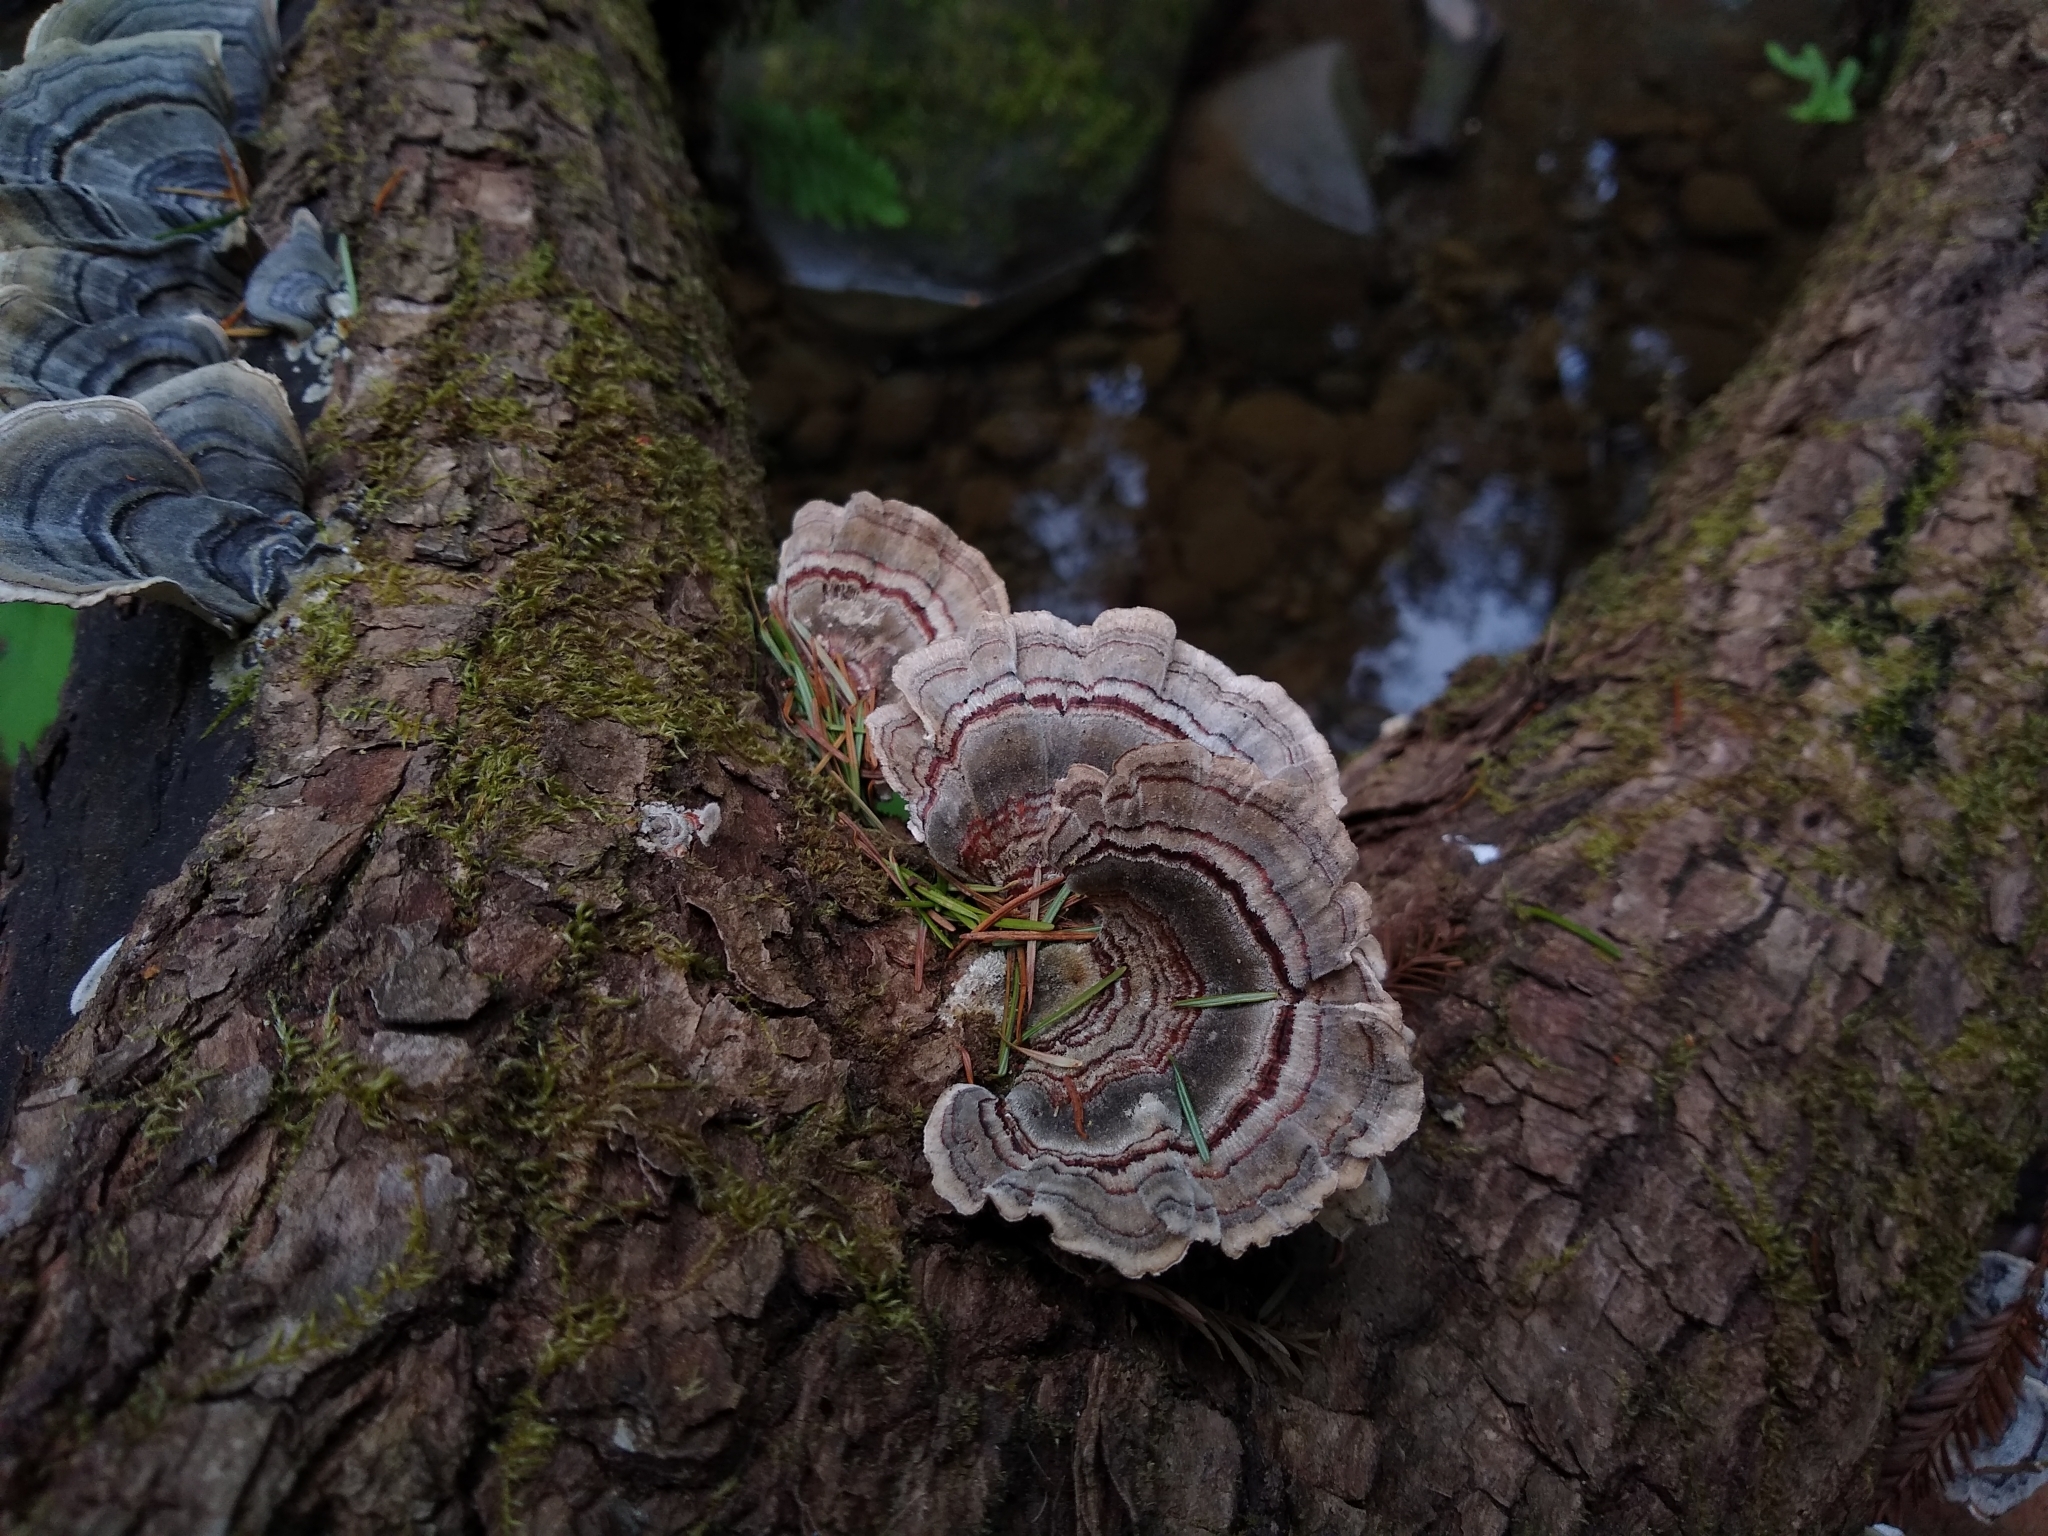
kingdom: Fungi
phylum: Basidiomycota
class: Agaricomycetes
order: Polyporales
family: Polyporaceae
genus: Trametes
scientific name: Trametes versicolor
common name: Turkeytail
